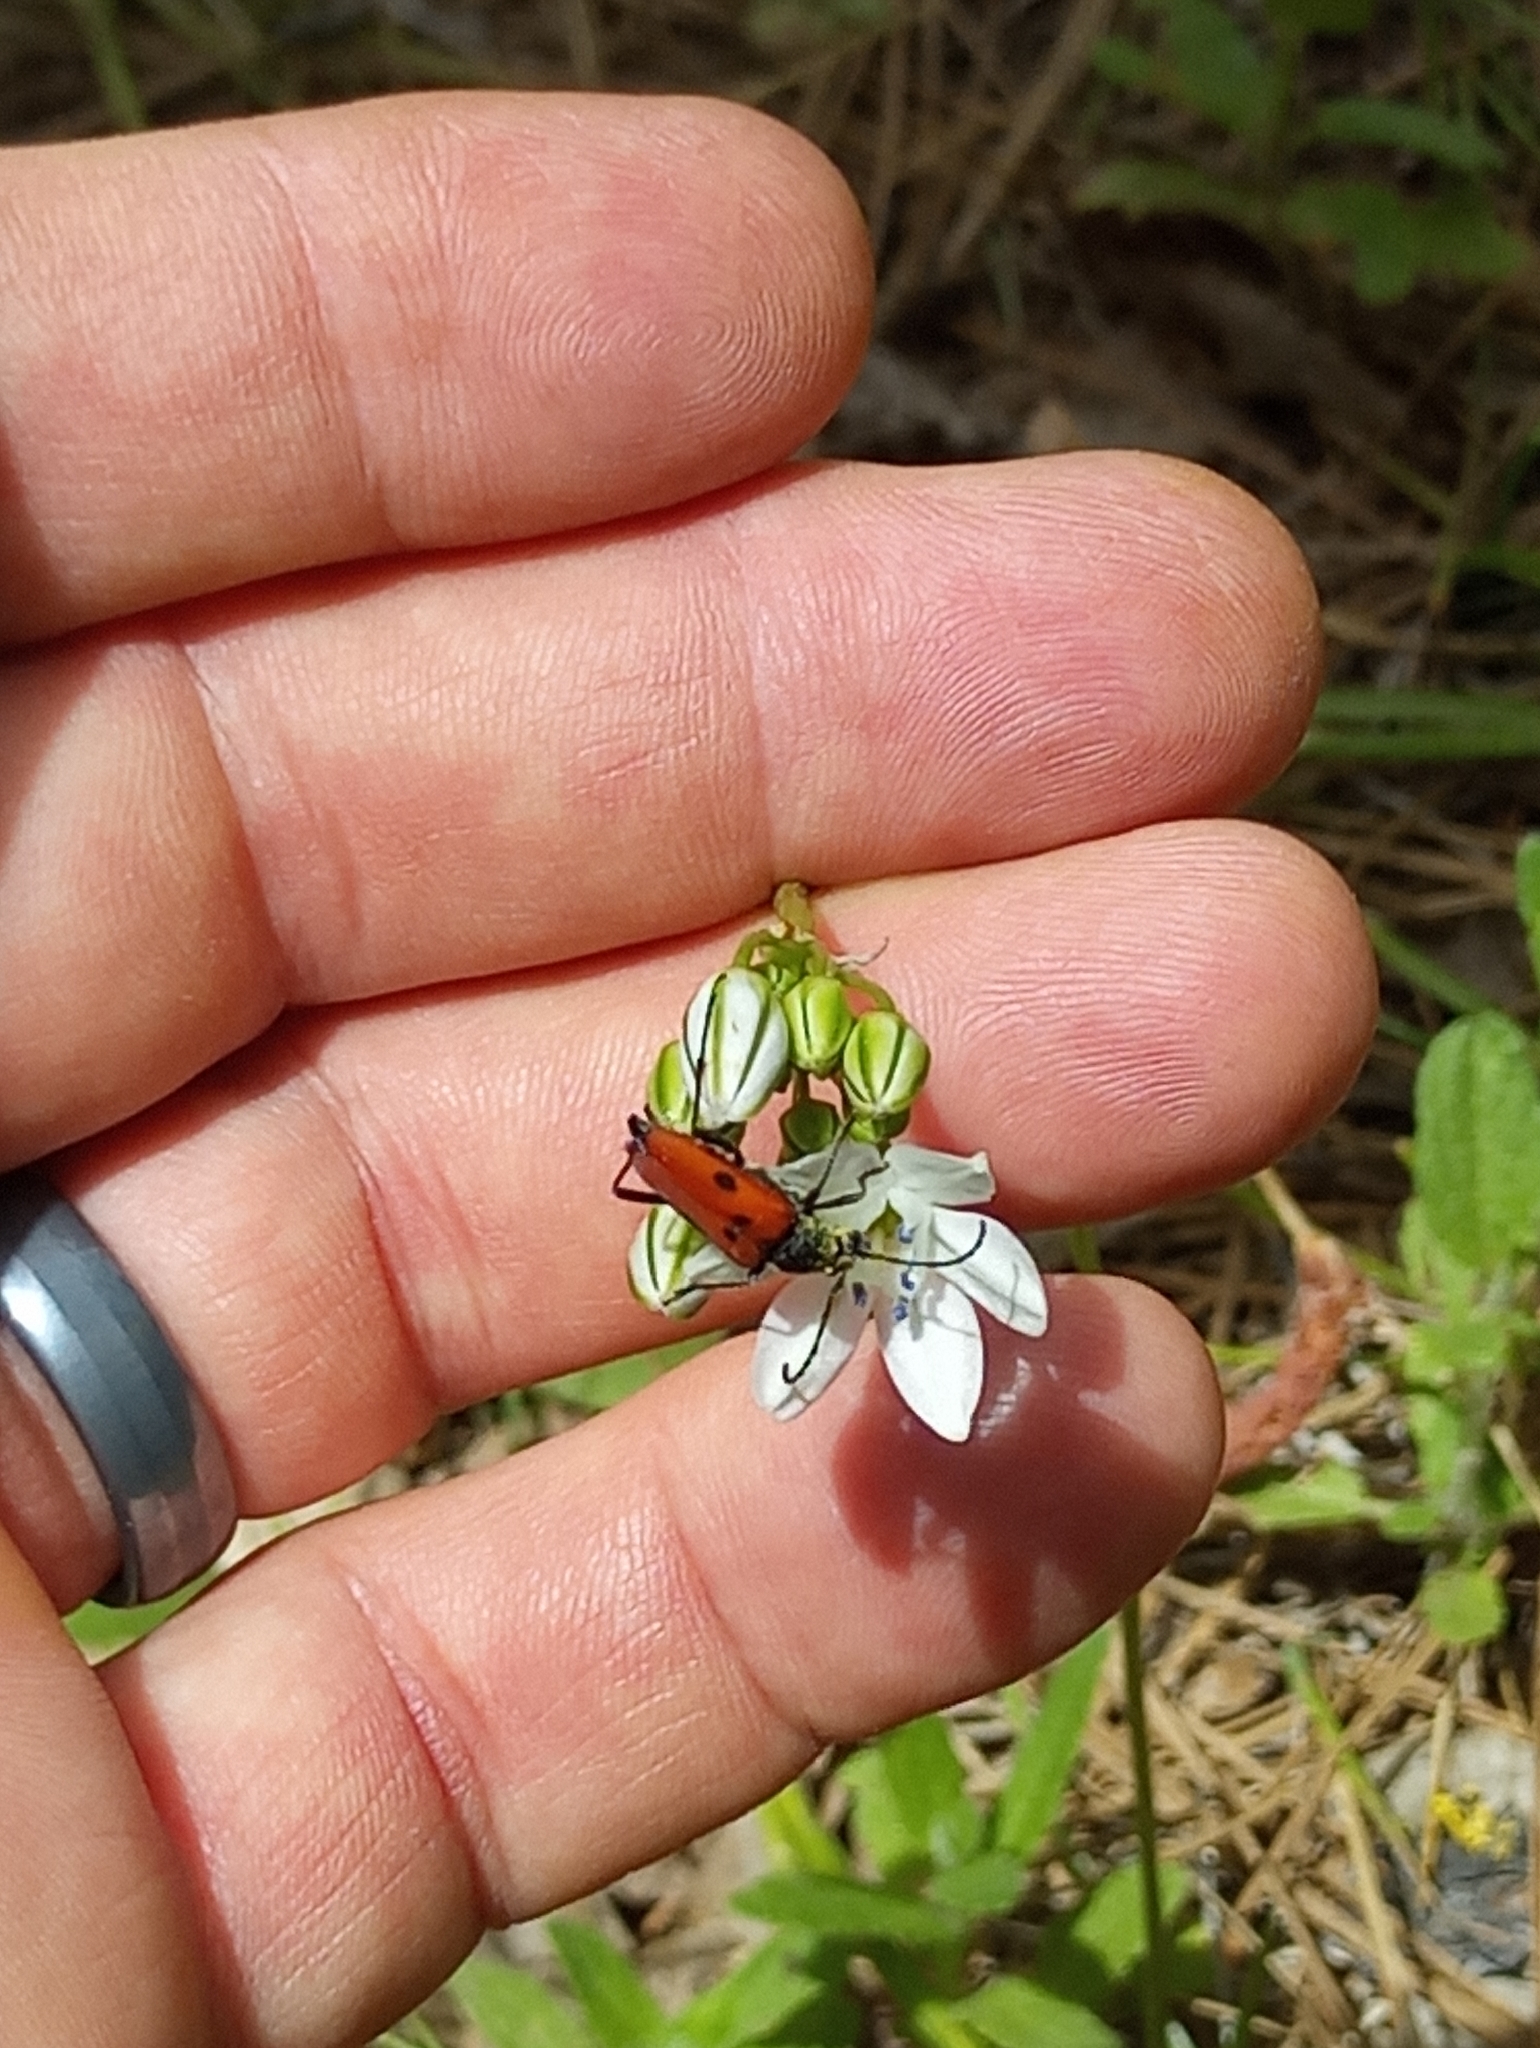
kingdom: Animalia
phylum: Arthropoda
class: Insecta
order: Coleoptera
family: Cerambycidae
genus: Anastrangalia
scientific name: Anastrangalia laetifica
